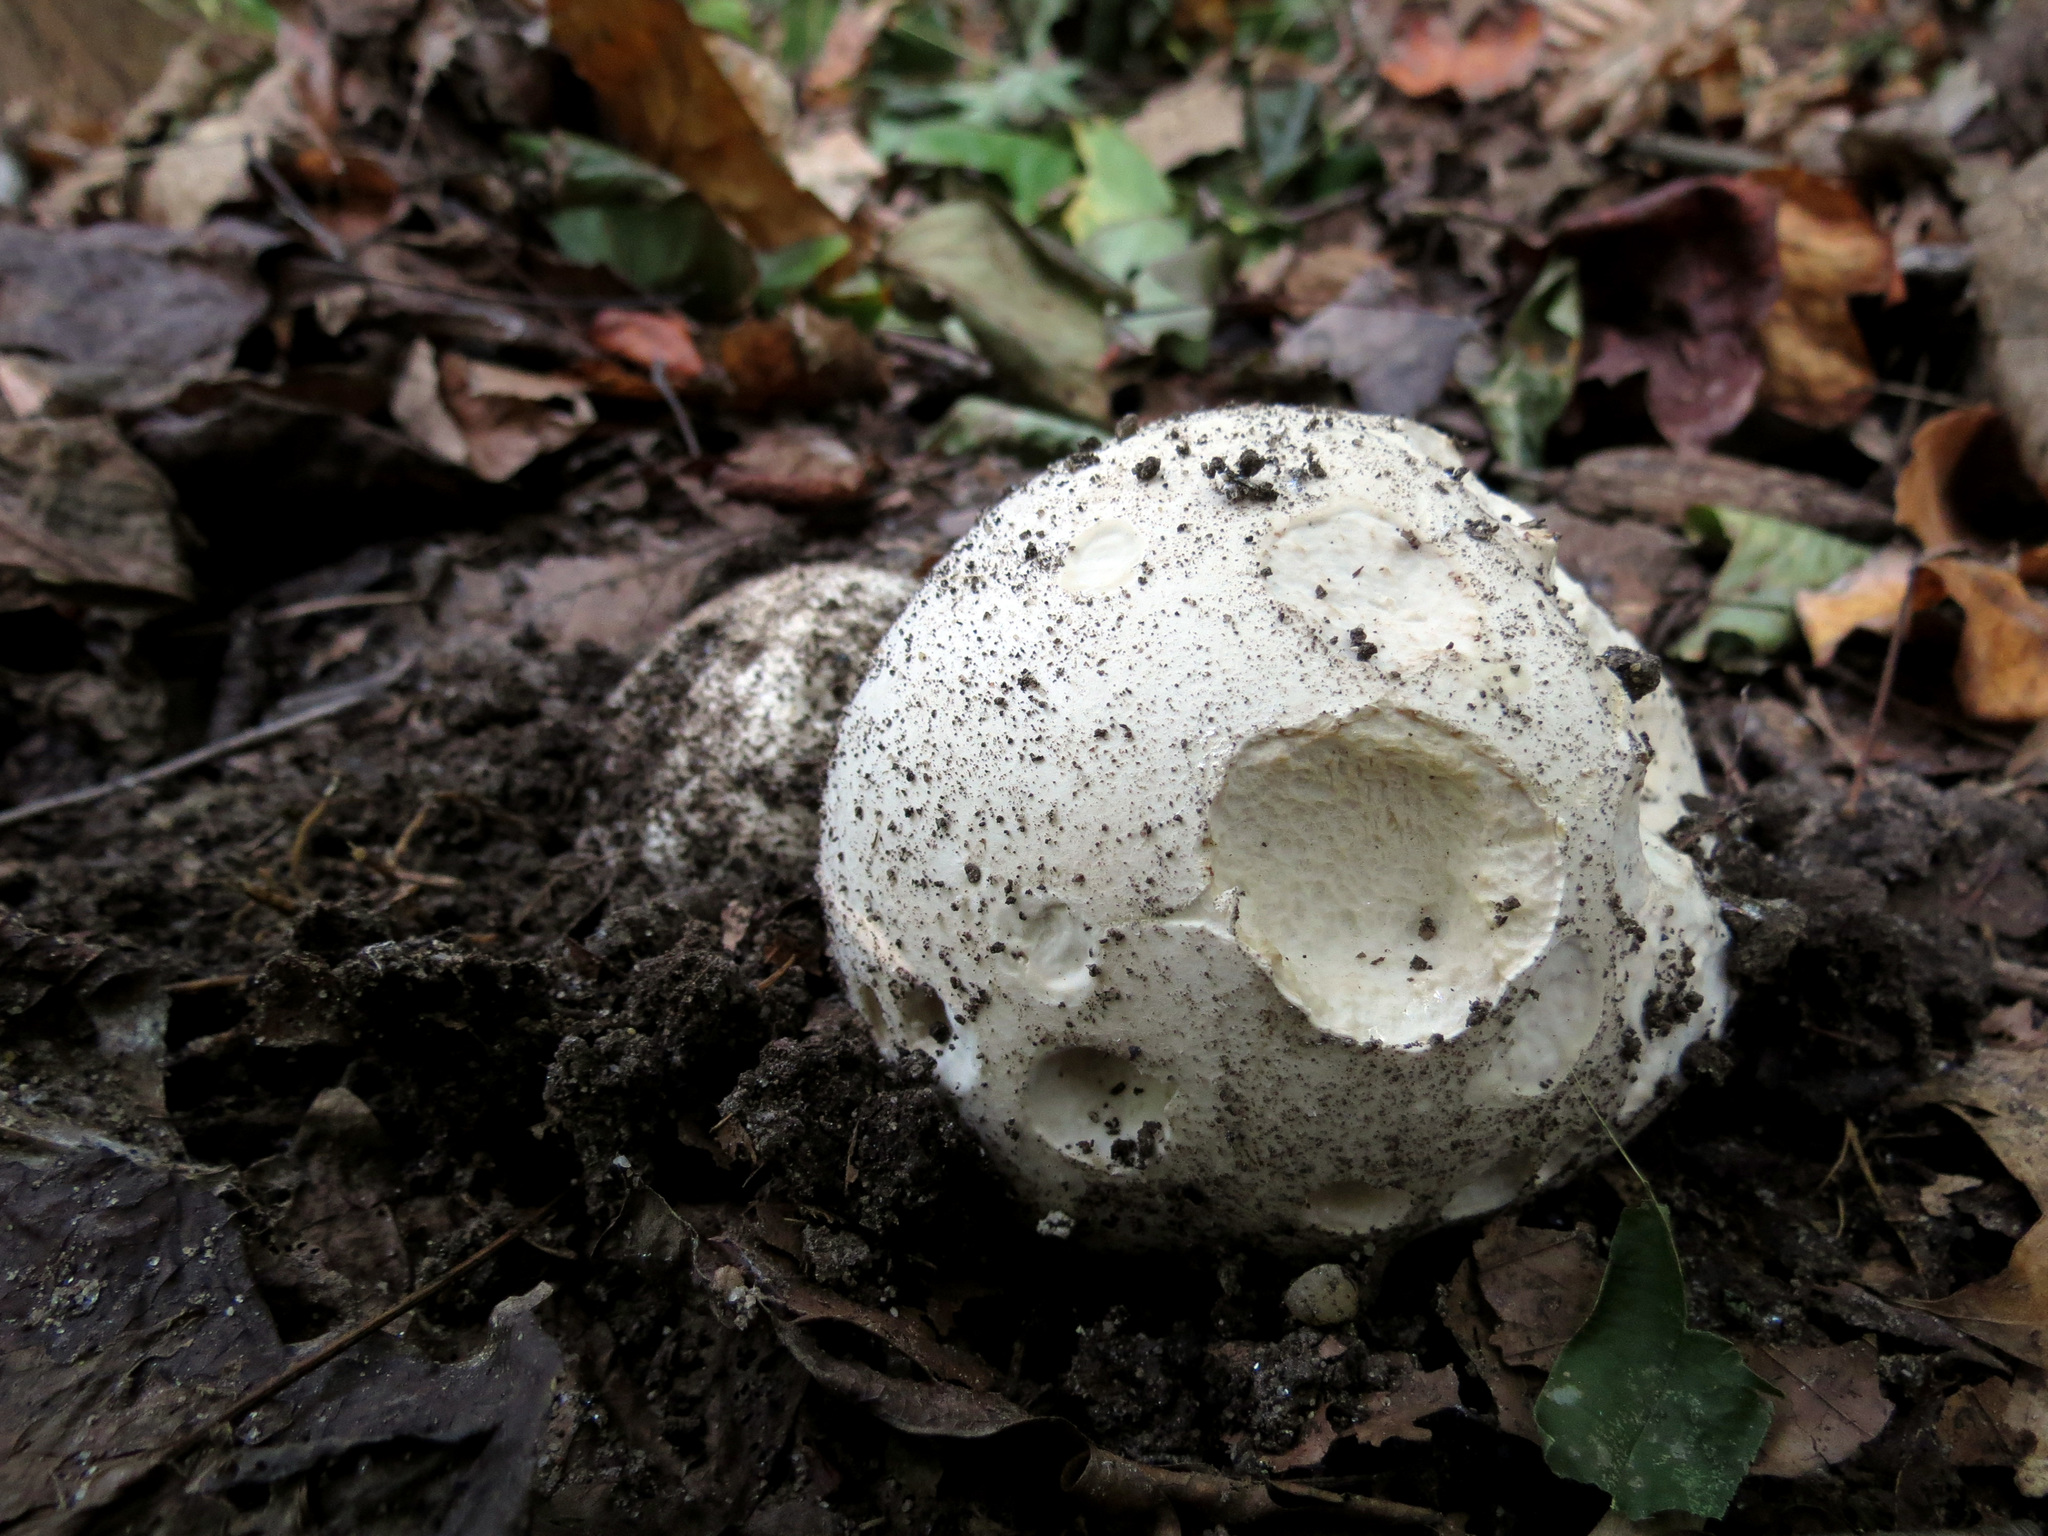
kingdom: Fungi
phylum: Basidiomycota
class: Agaricomycetes
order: Agaricales
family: Lycoperdaceae
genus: Calvatia
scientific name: Calvatia gigantea
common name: Giant puffball
